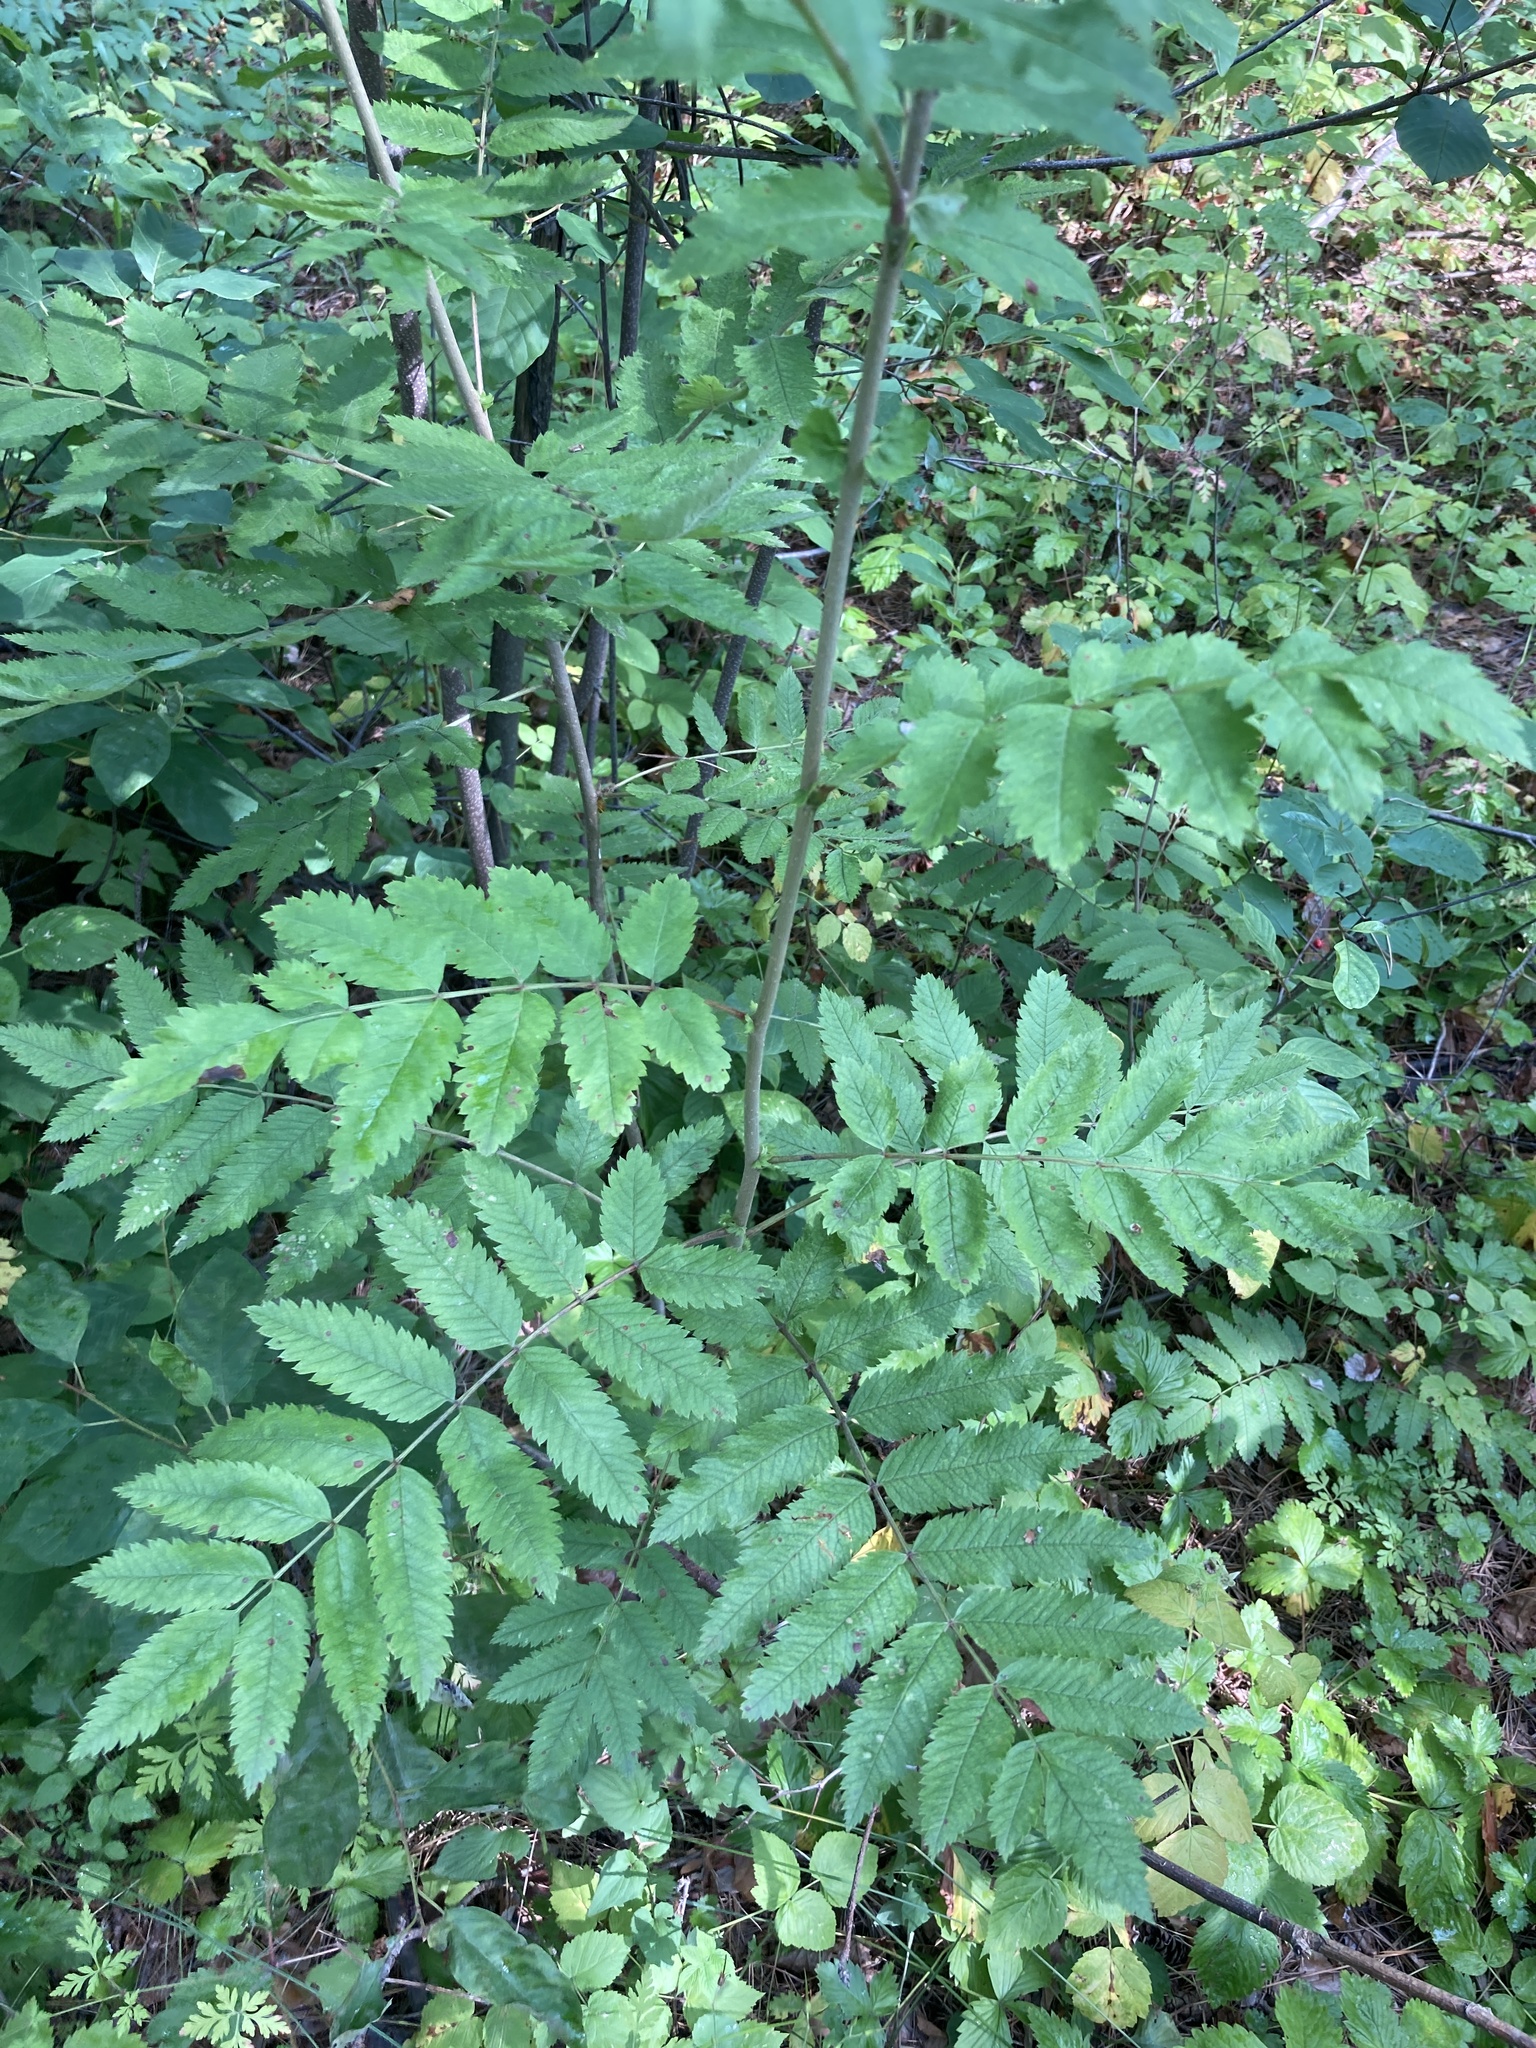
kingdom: Plantae
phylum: Tracheophyta
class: Magnoliopsida
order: Rosales
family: Rosaceae
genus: Sorbus
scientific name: Sorbus aucuparia
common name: Rowan
